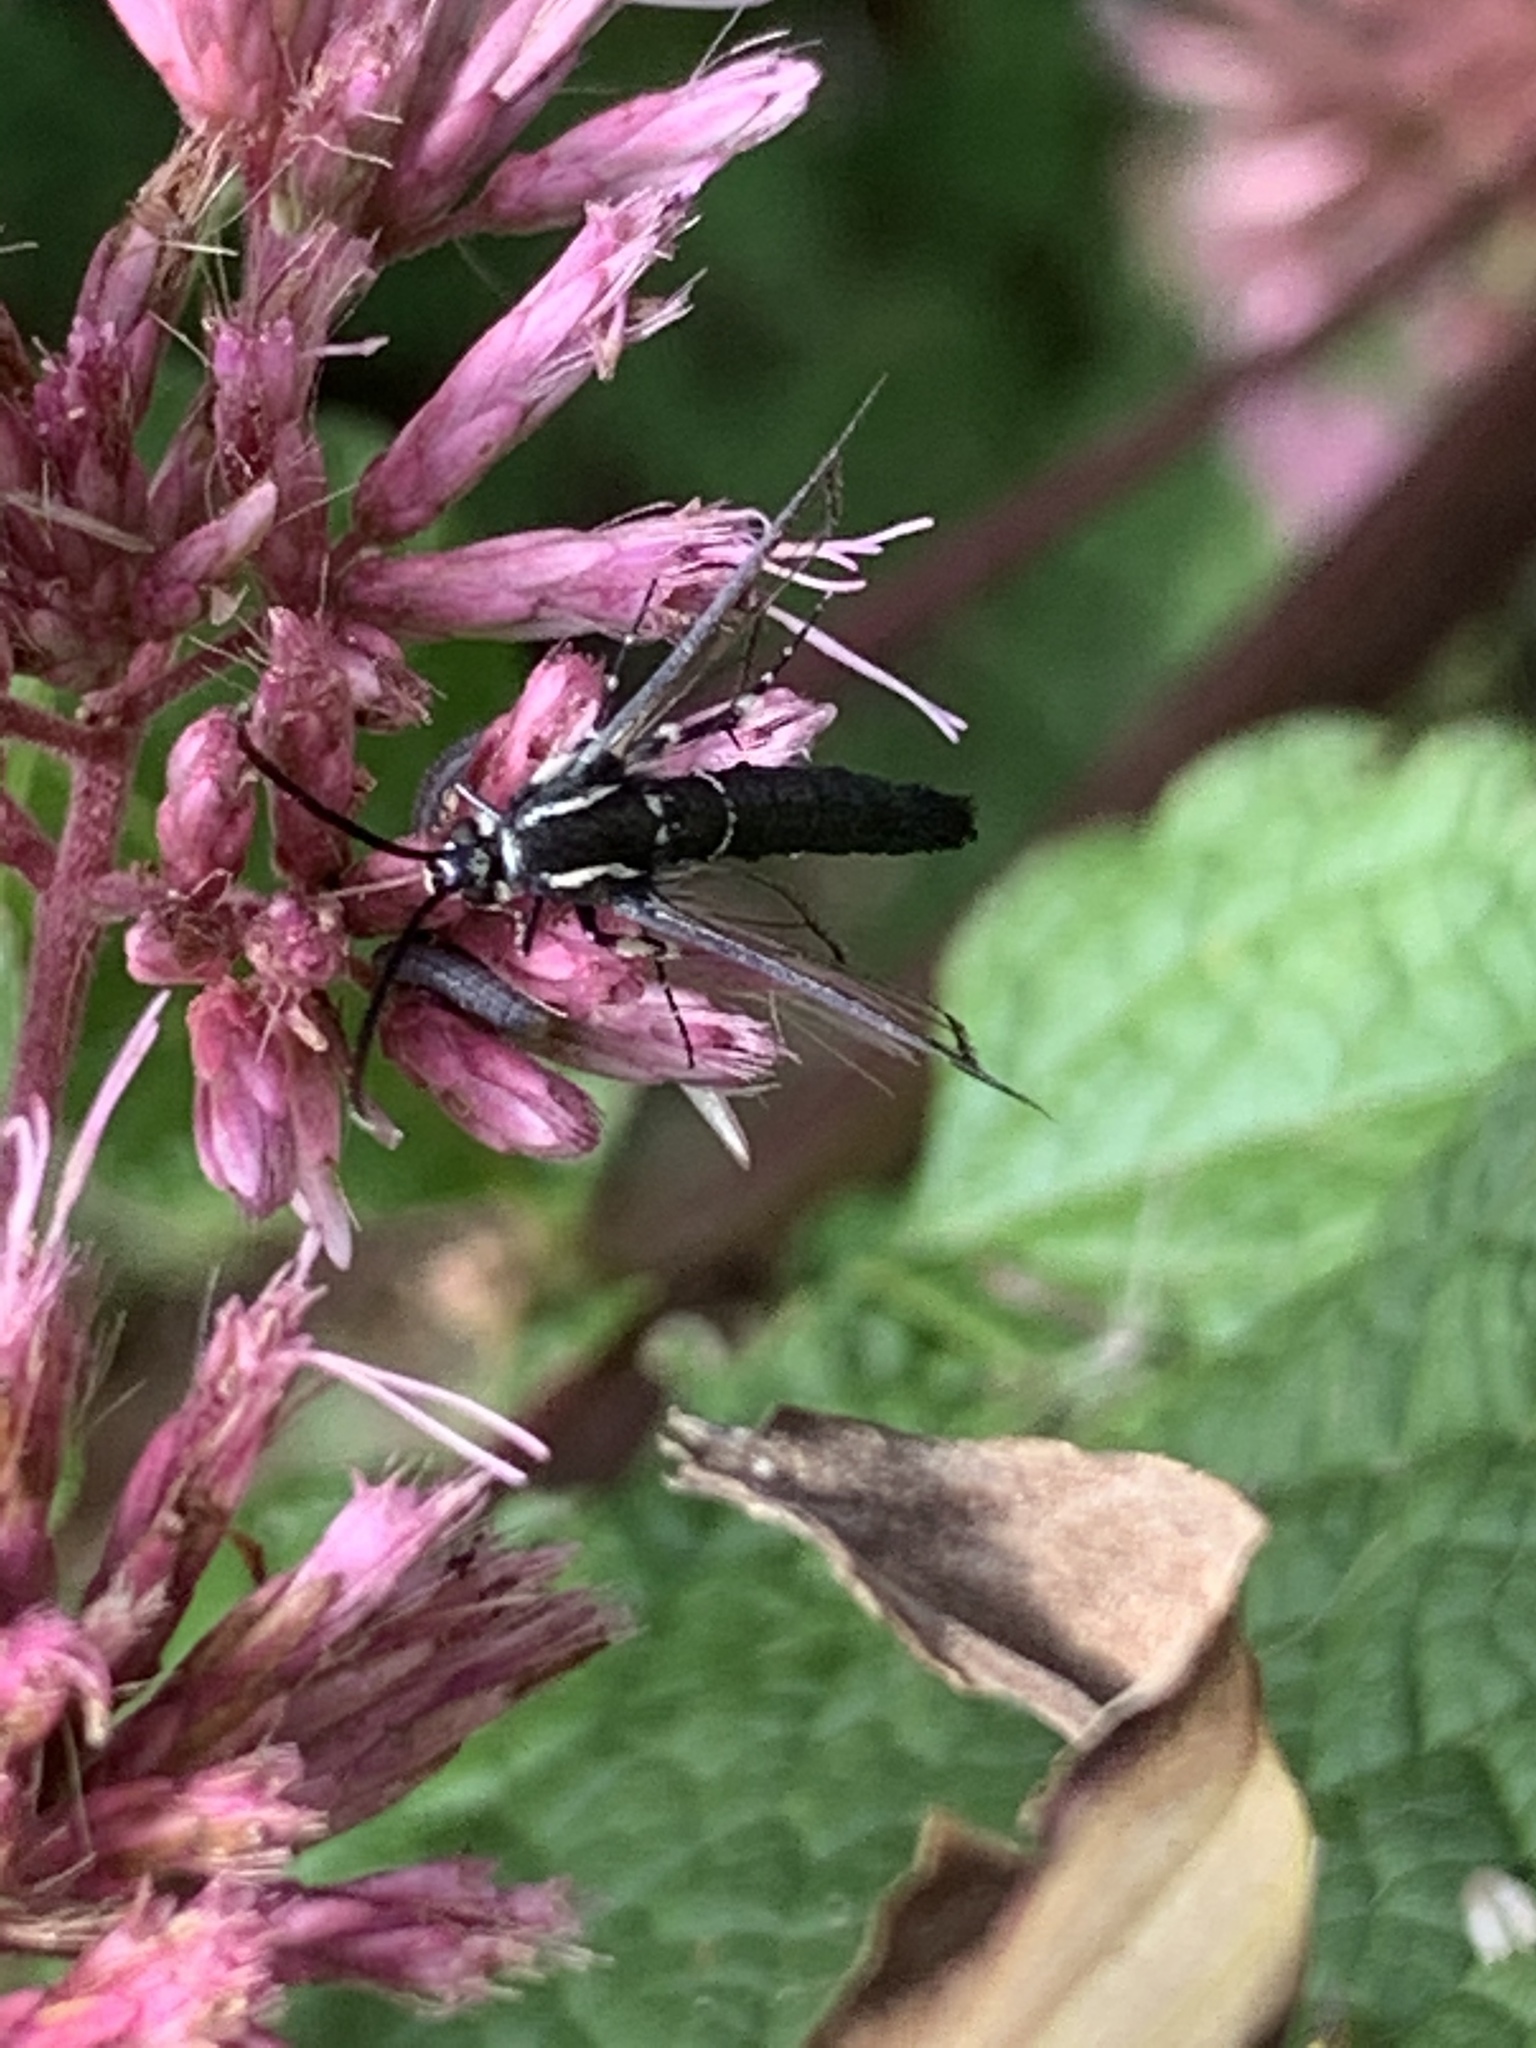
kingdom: Animalia
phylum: Arthropoda
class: Insecta
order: Lepidoptera
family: Sesiidae
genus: Synanthedon
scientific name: Synanthedon pictipes
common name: Lesser peachtree borer moth
